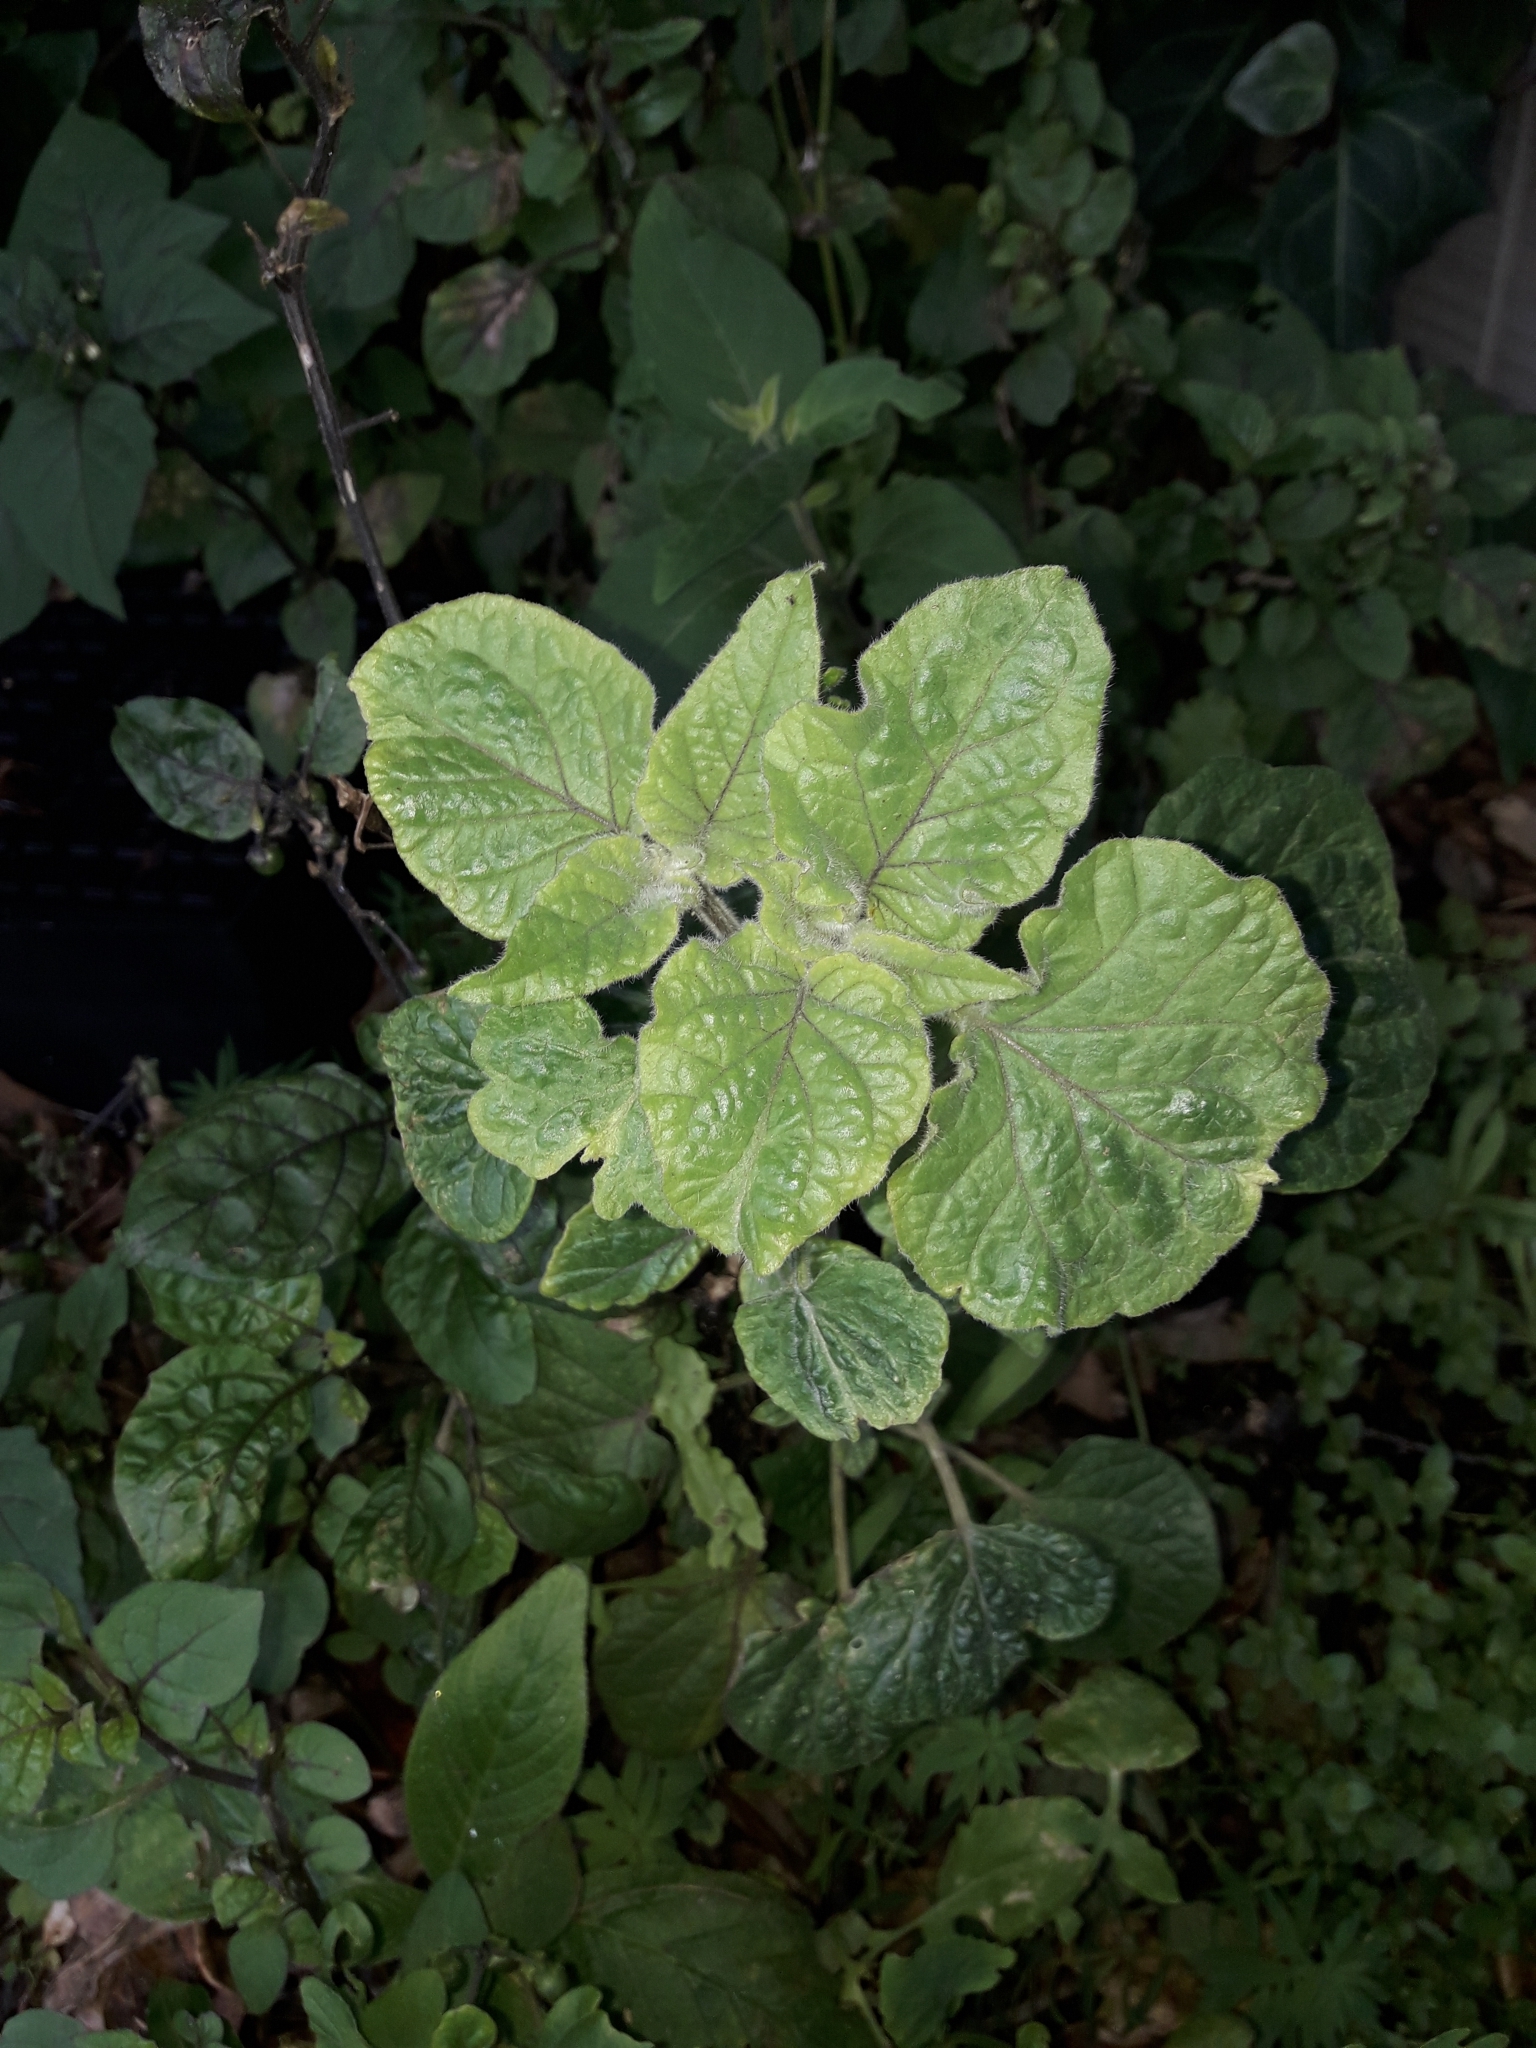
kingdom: Plantae
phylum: Tracheophyta
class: Magnoliopsida
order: Solanales
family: Solanaceae
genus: Physalis
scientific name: Physalis peruviana
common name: Cape-gooseberry
